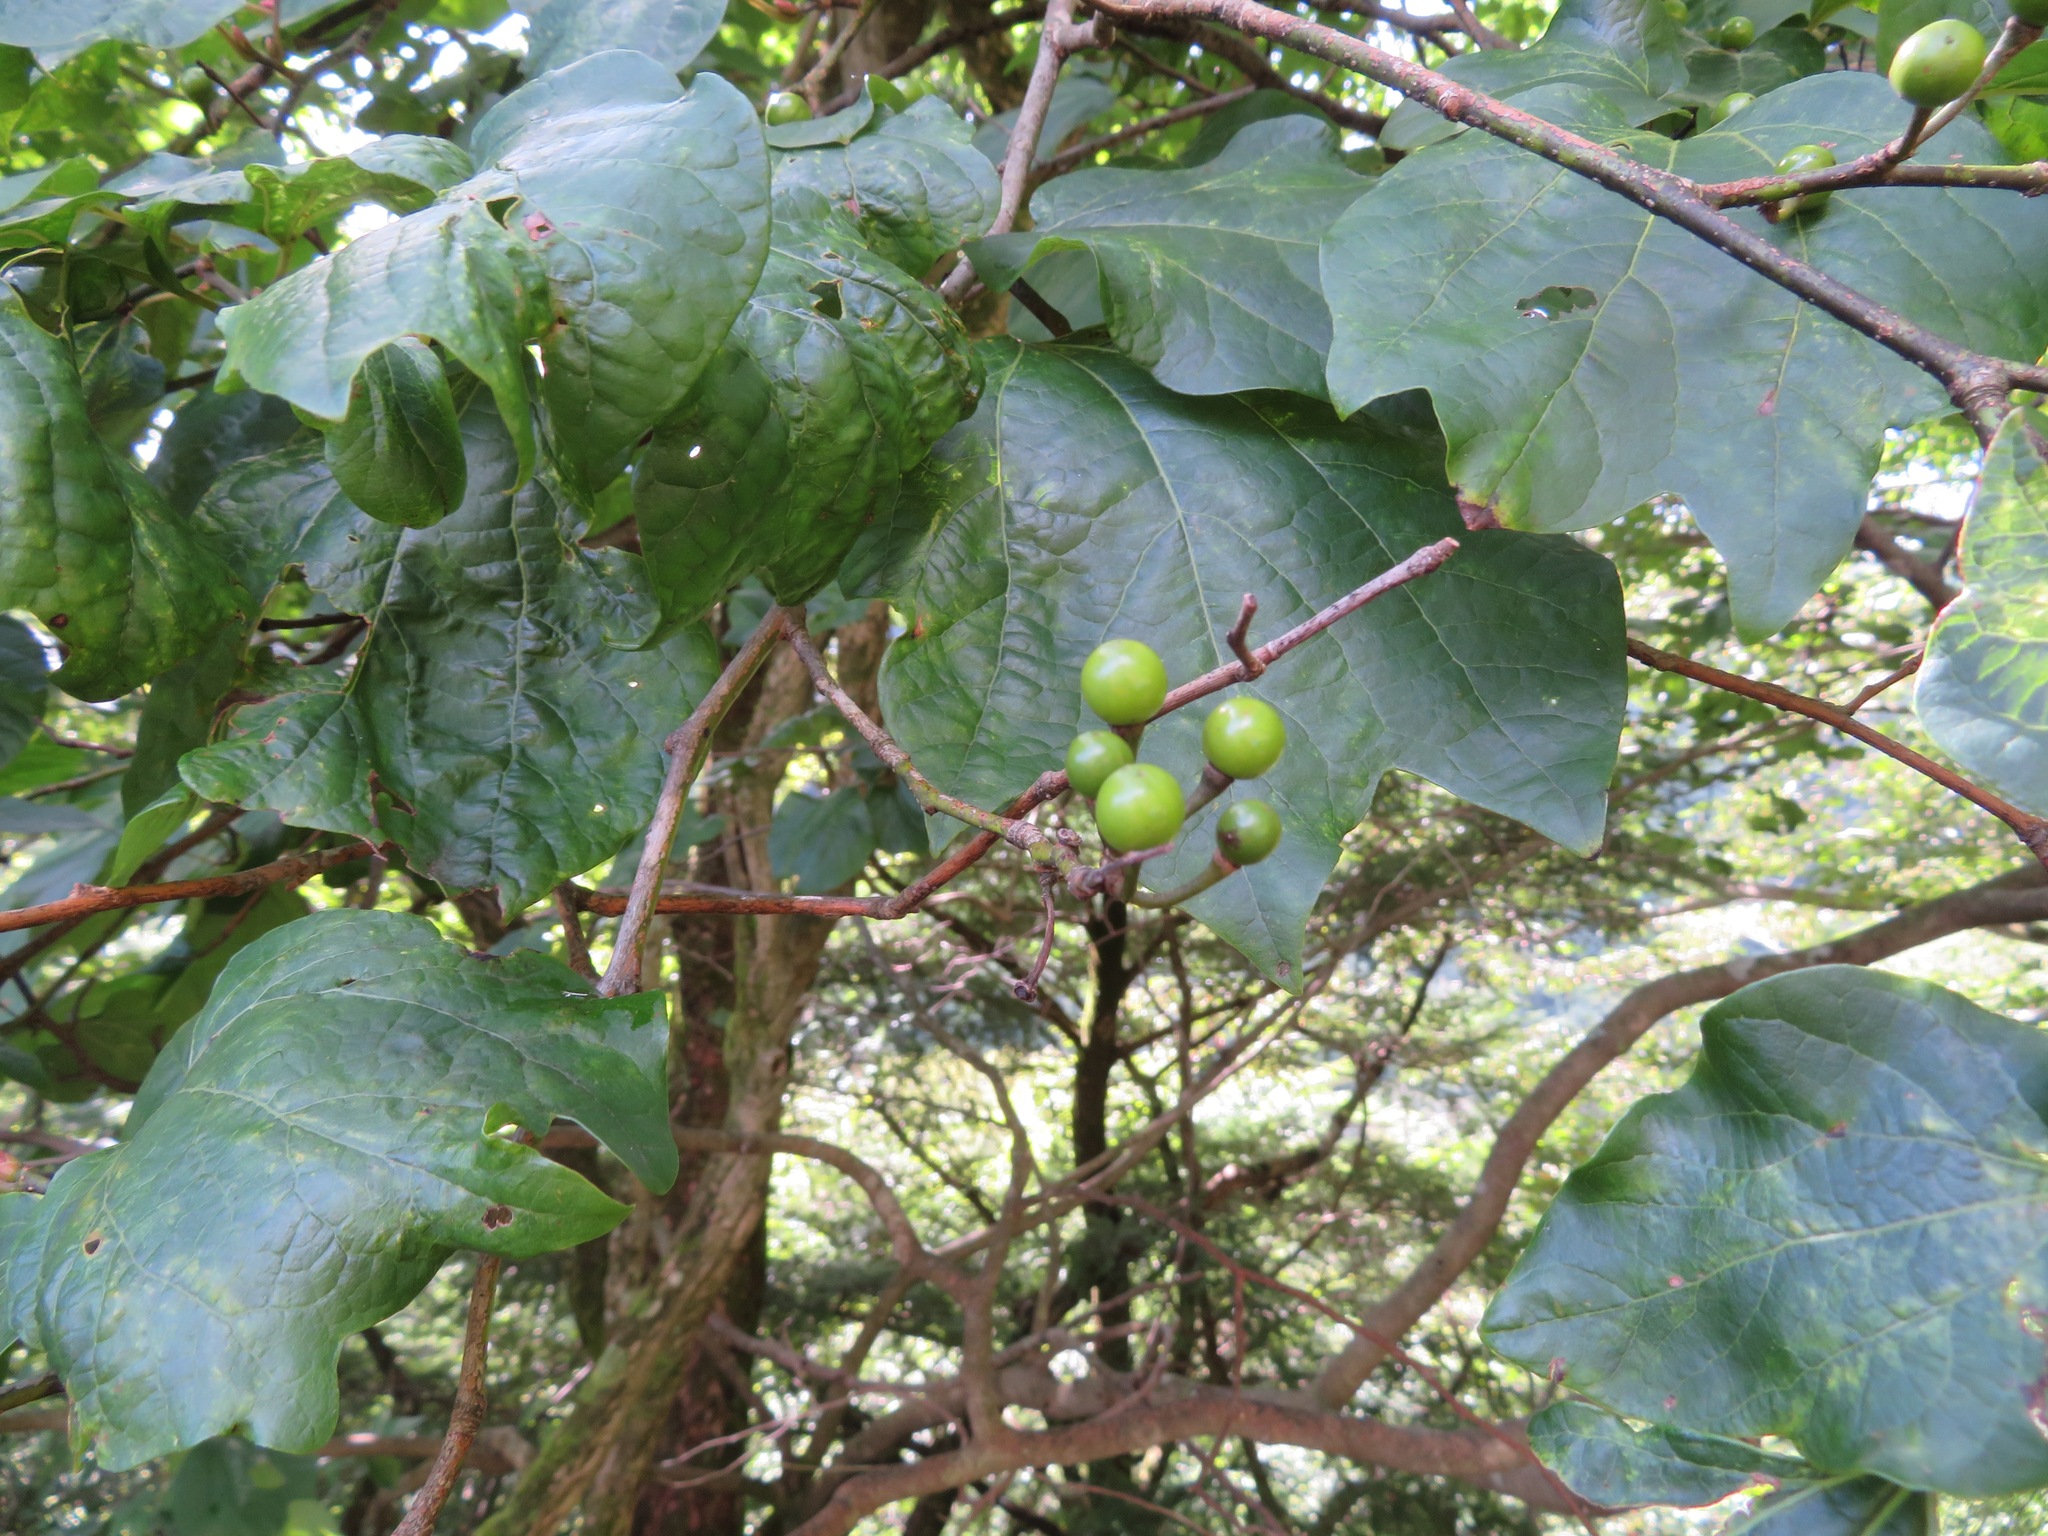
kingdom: Plantae
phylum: Tracheophyta
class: Magnoliopsida
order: Laurales
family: Lauraceae
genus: Lindera
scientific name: Lindera obtusiloba
